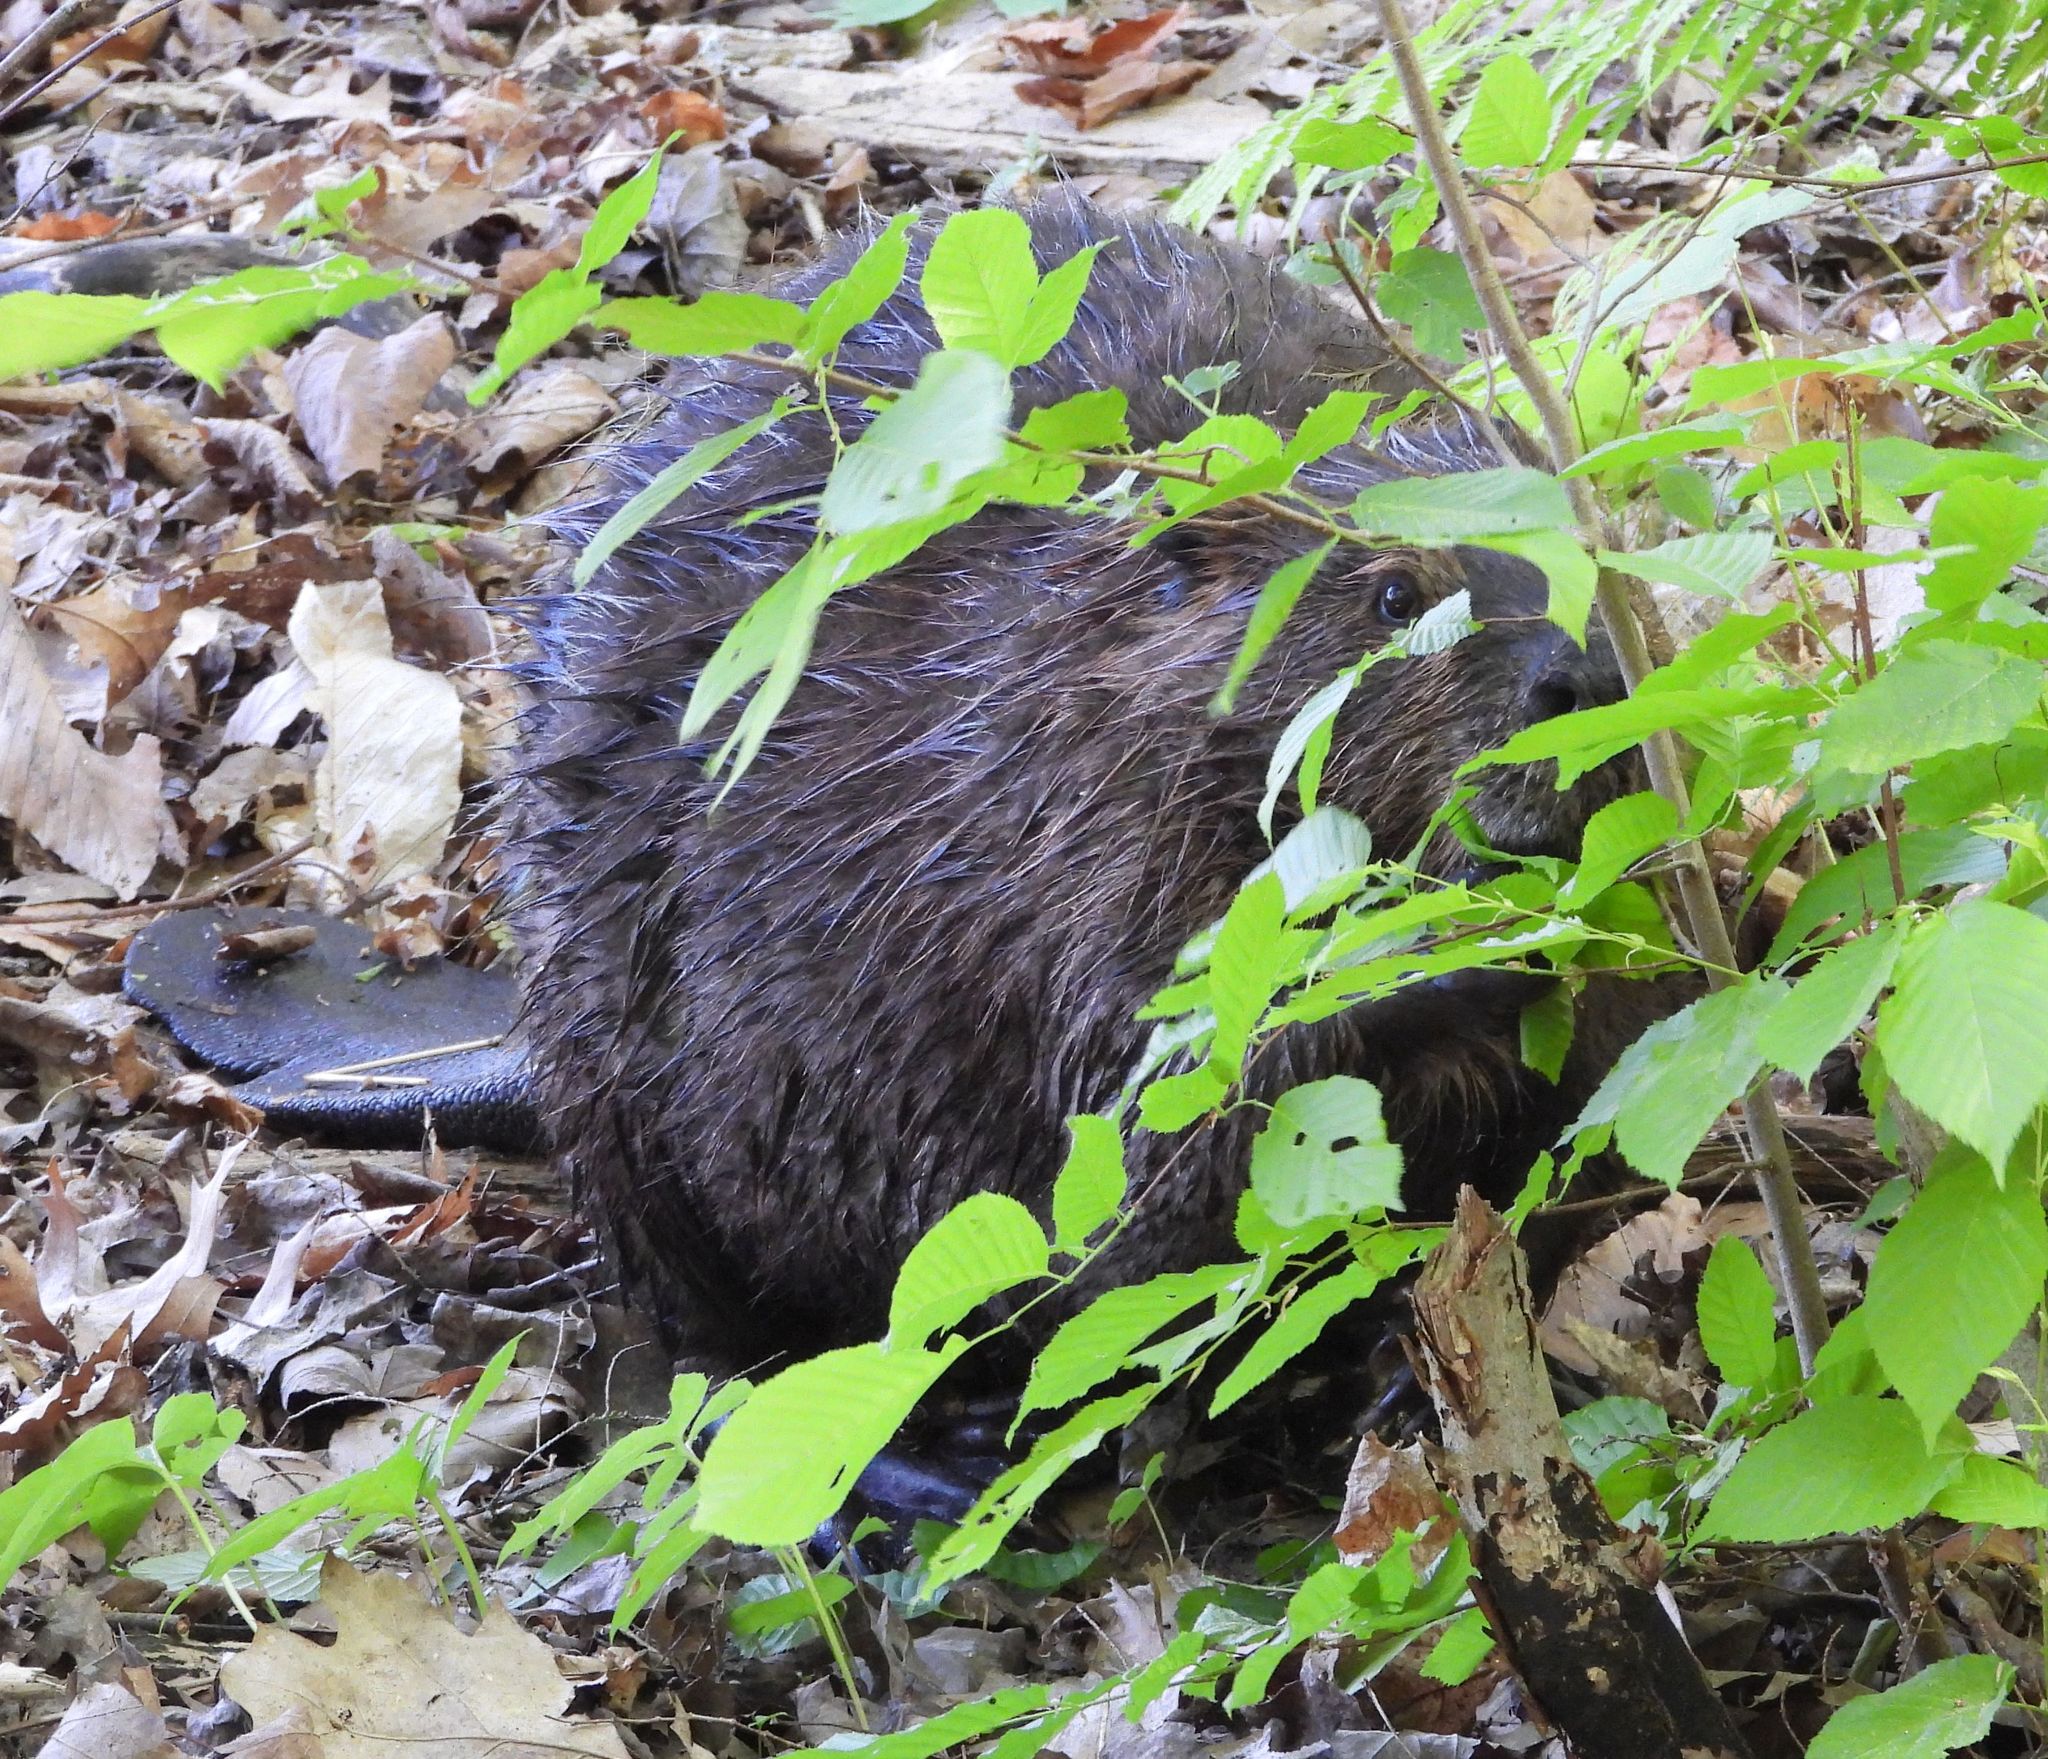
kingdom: Animalia
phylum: Chordata
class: Mammalia
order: Rodentia
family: Castoridae
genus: Castor
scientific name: Castor canadensis
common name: American beaver
